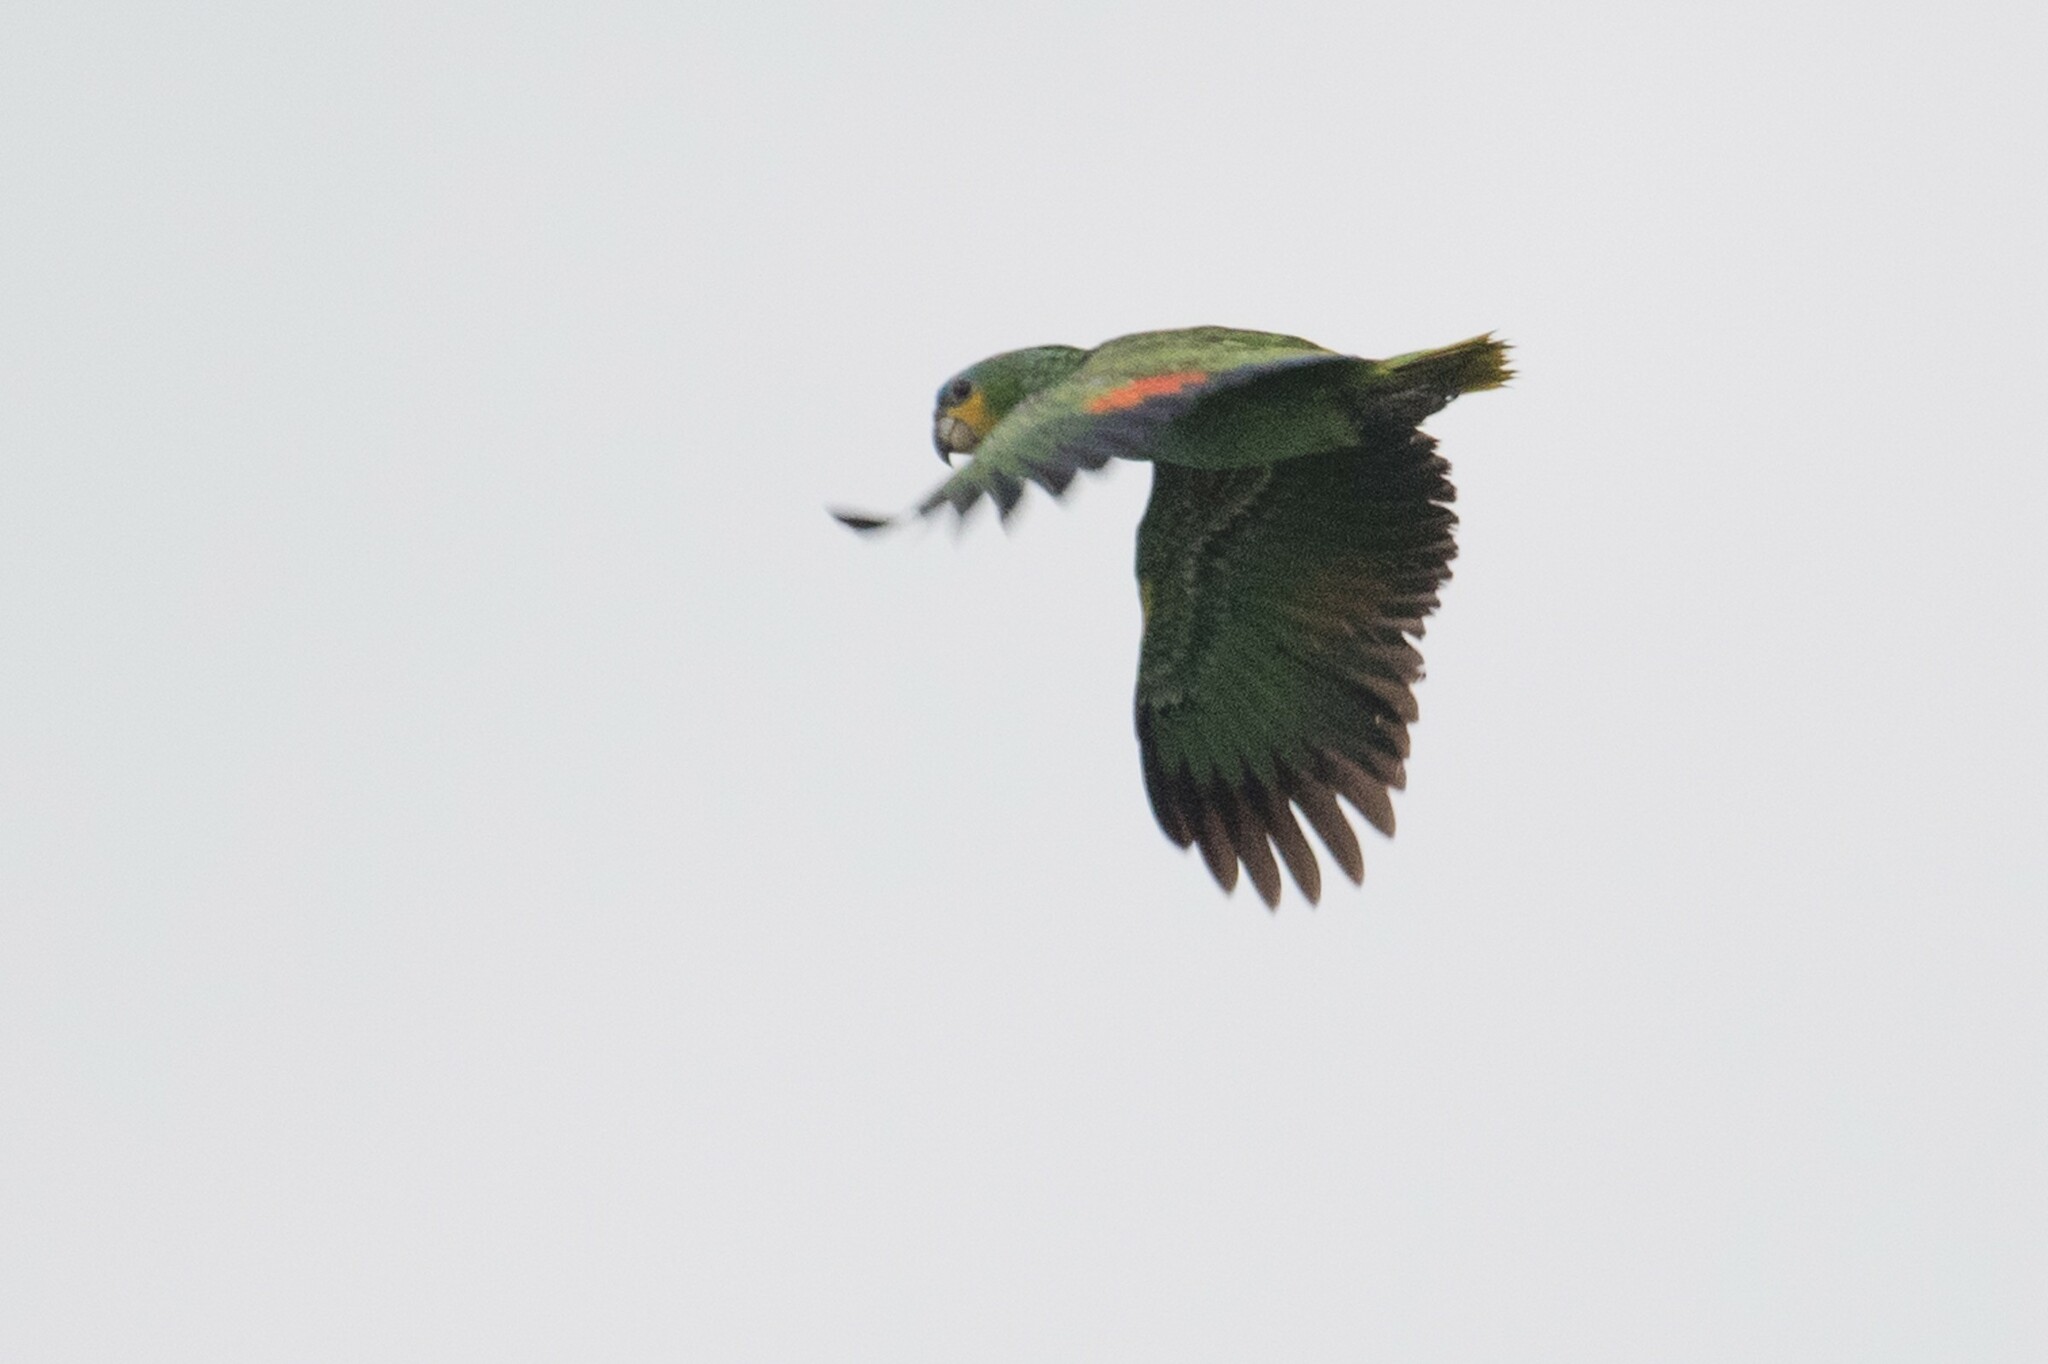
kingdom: Animalia
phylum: Chordata
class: Aves
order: Psittaciformes
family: Psittacidae
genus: Amazona
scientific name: Amazona amazonica
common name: Orange-winged amazon
